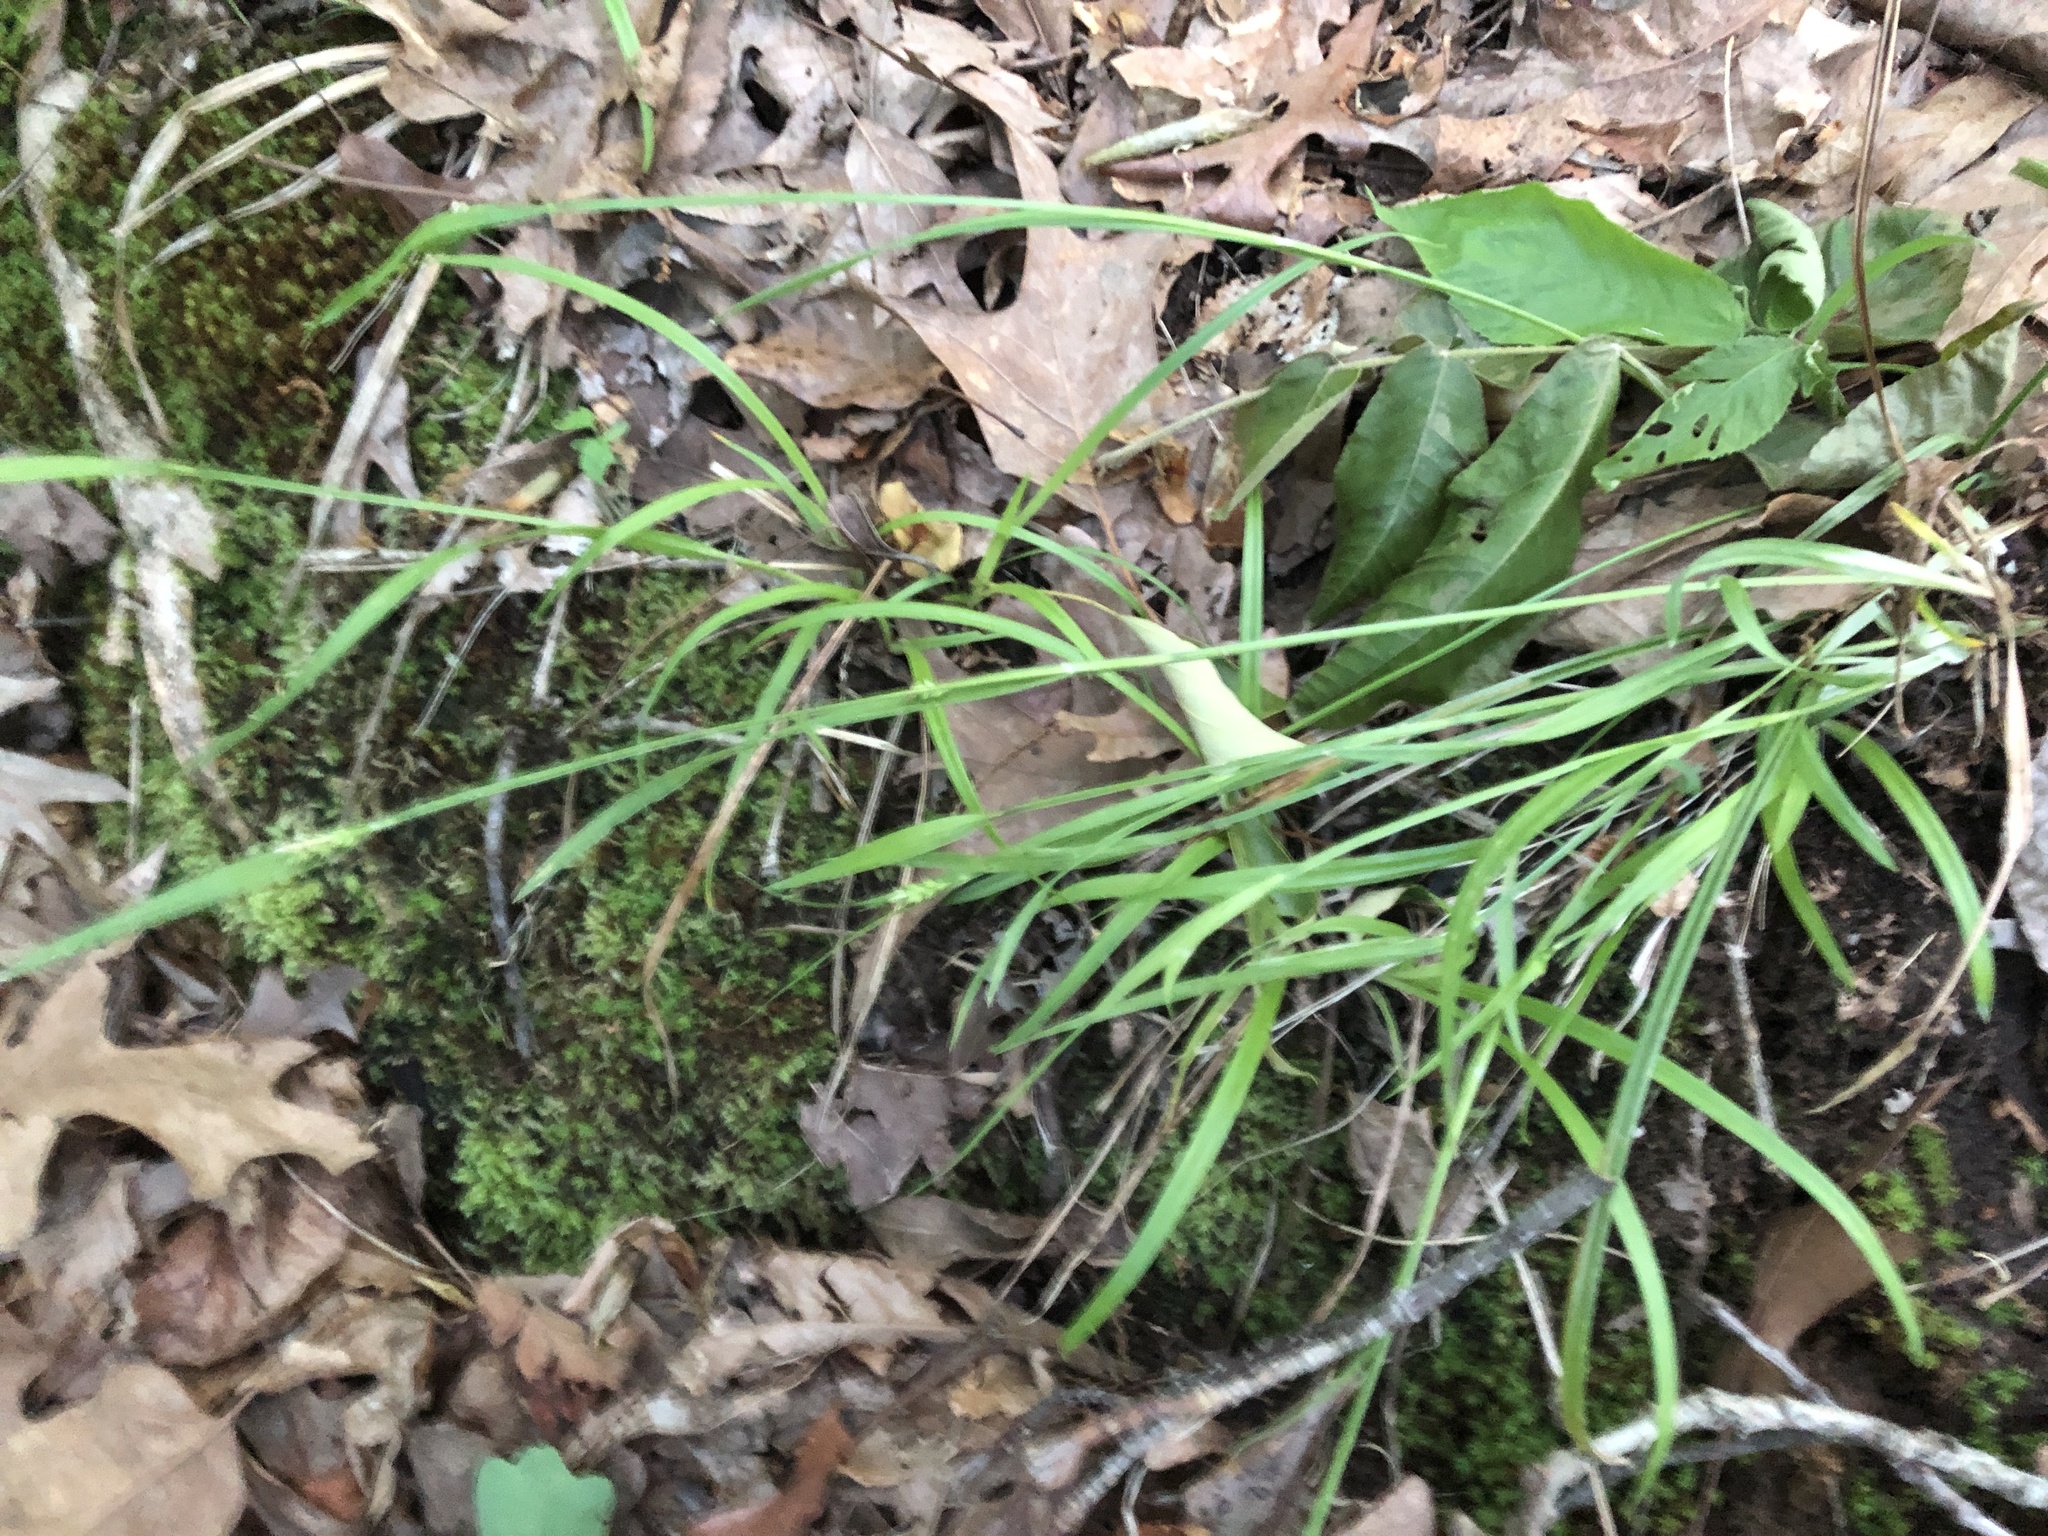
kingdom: Plantae
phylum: Tracheophyta
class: Liliopsida
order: Poales
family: Cyperaceae
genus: Carex
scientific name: Carex kraliana
